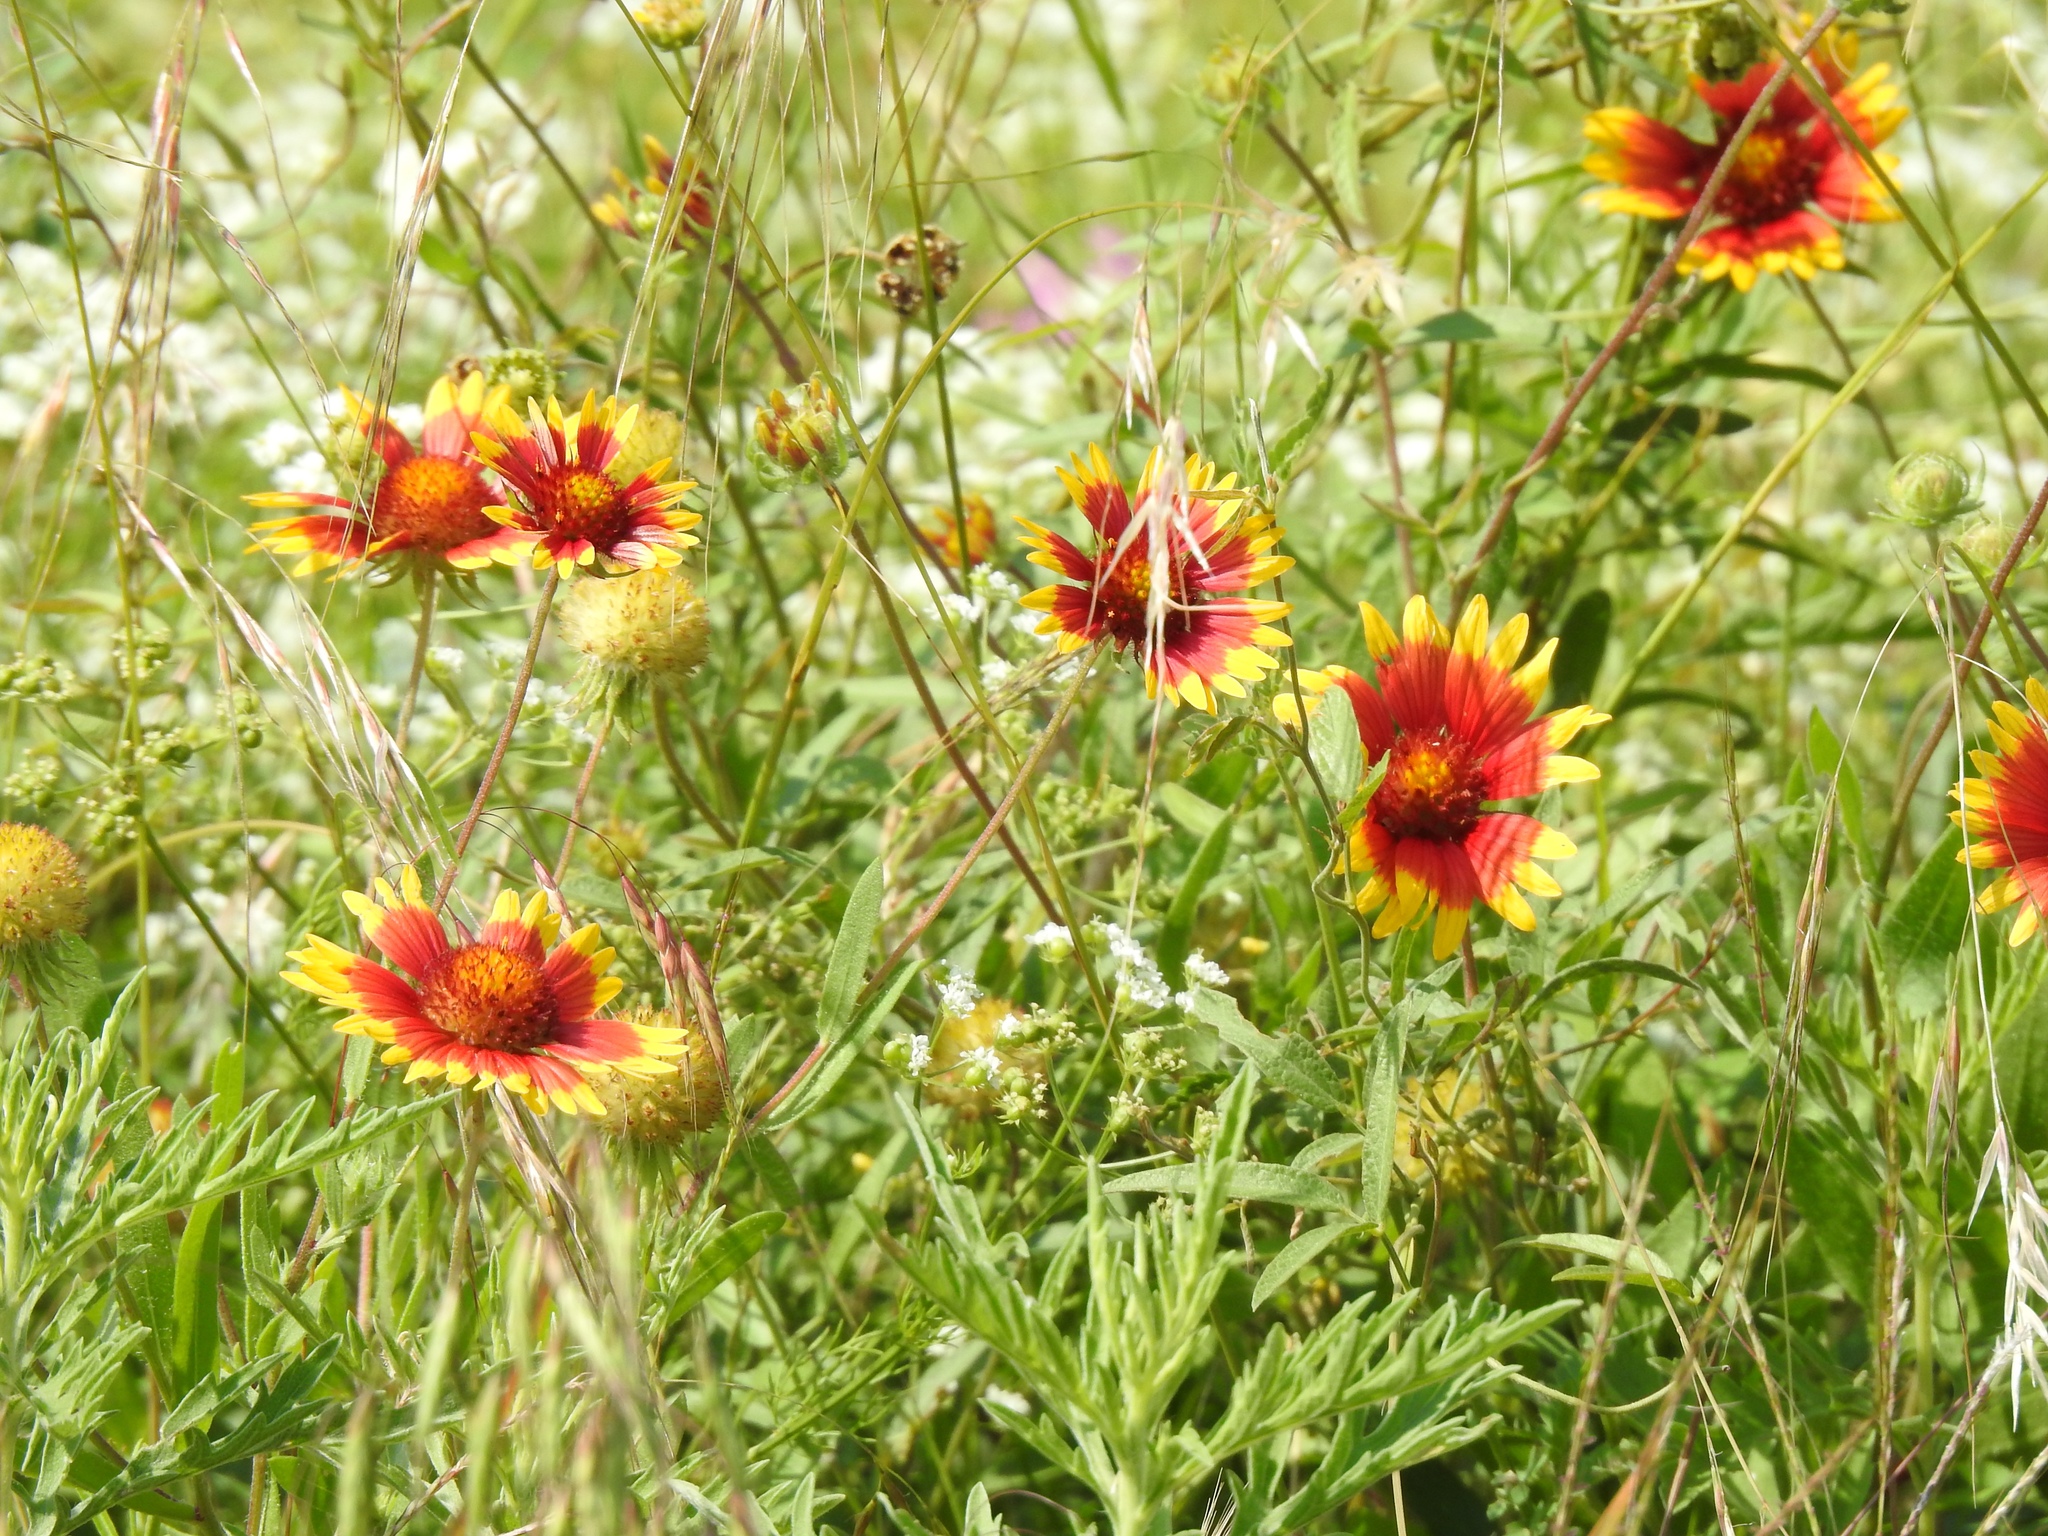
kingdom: Plantae
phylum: Tracheophyta
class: Magnoliopsida
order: Asterales
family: Asteraceae
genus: Gaillardia
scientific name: Gaillardia pulchella
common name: Firewheel
